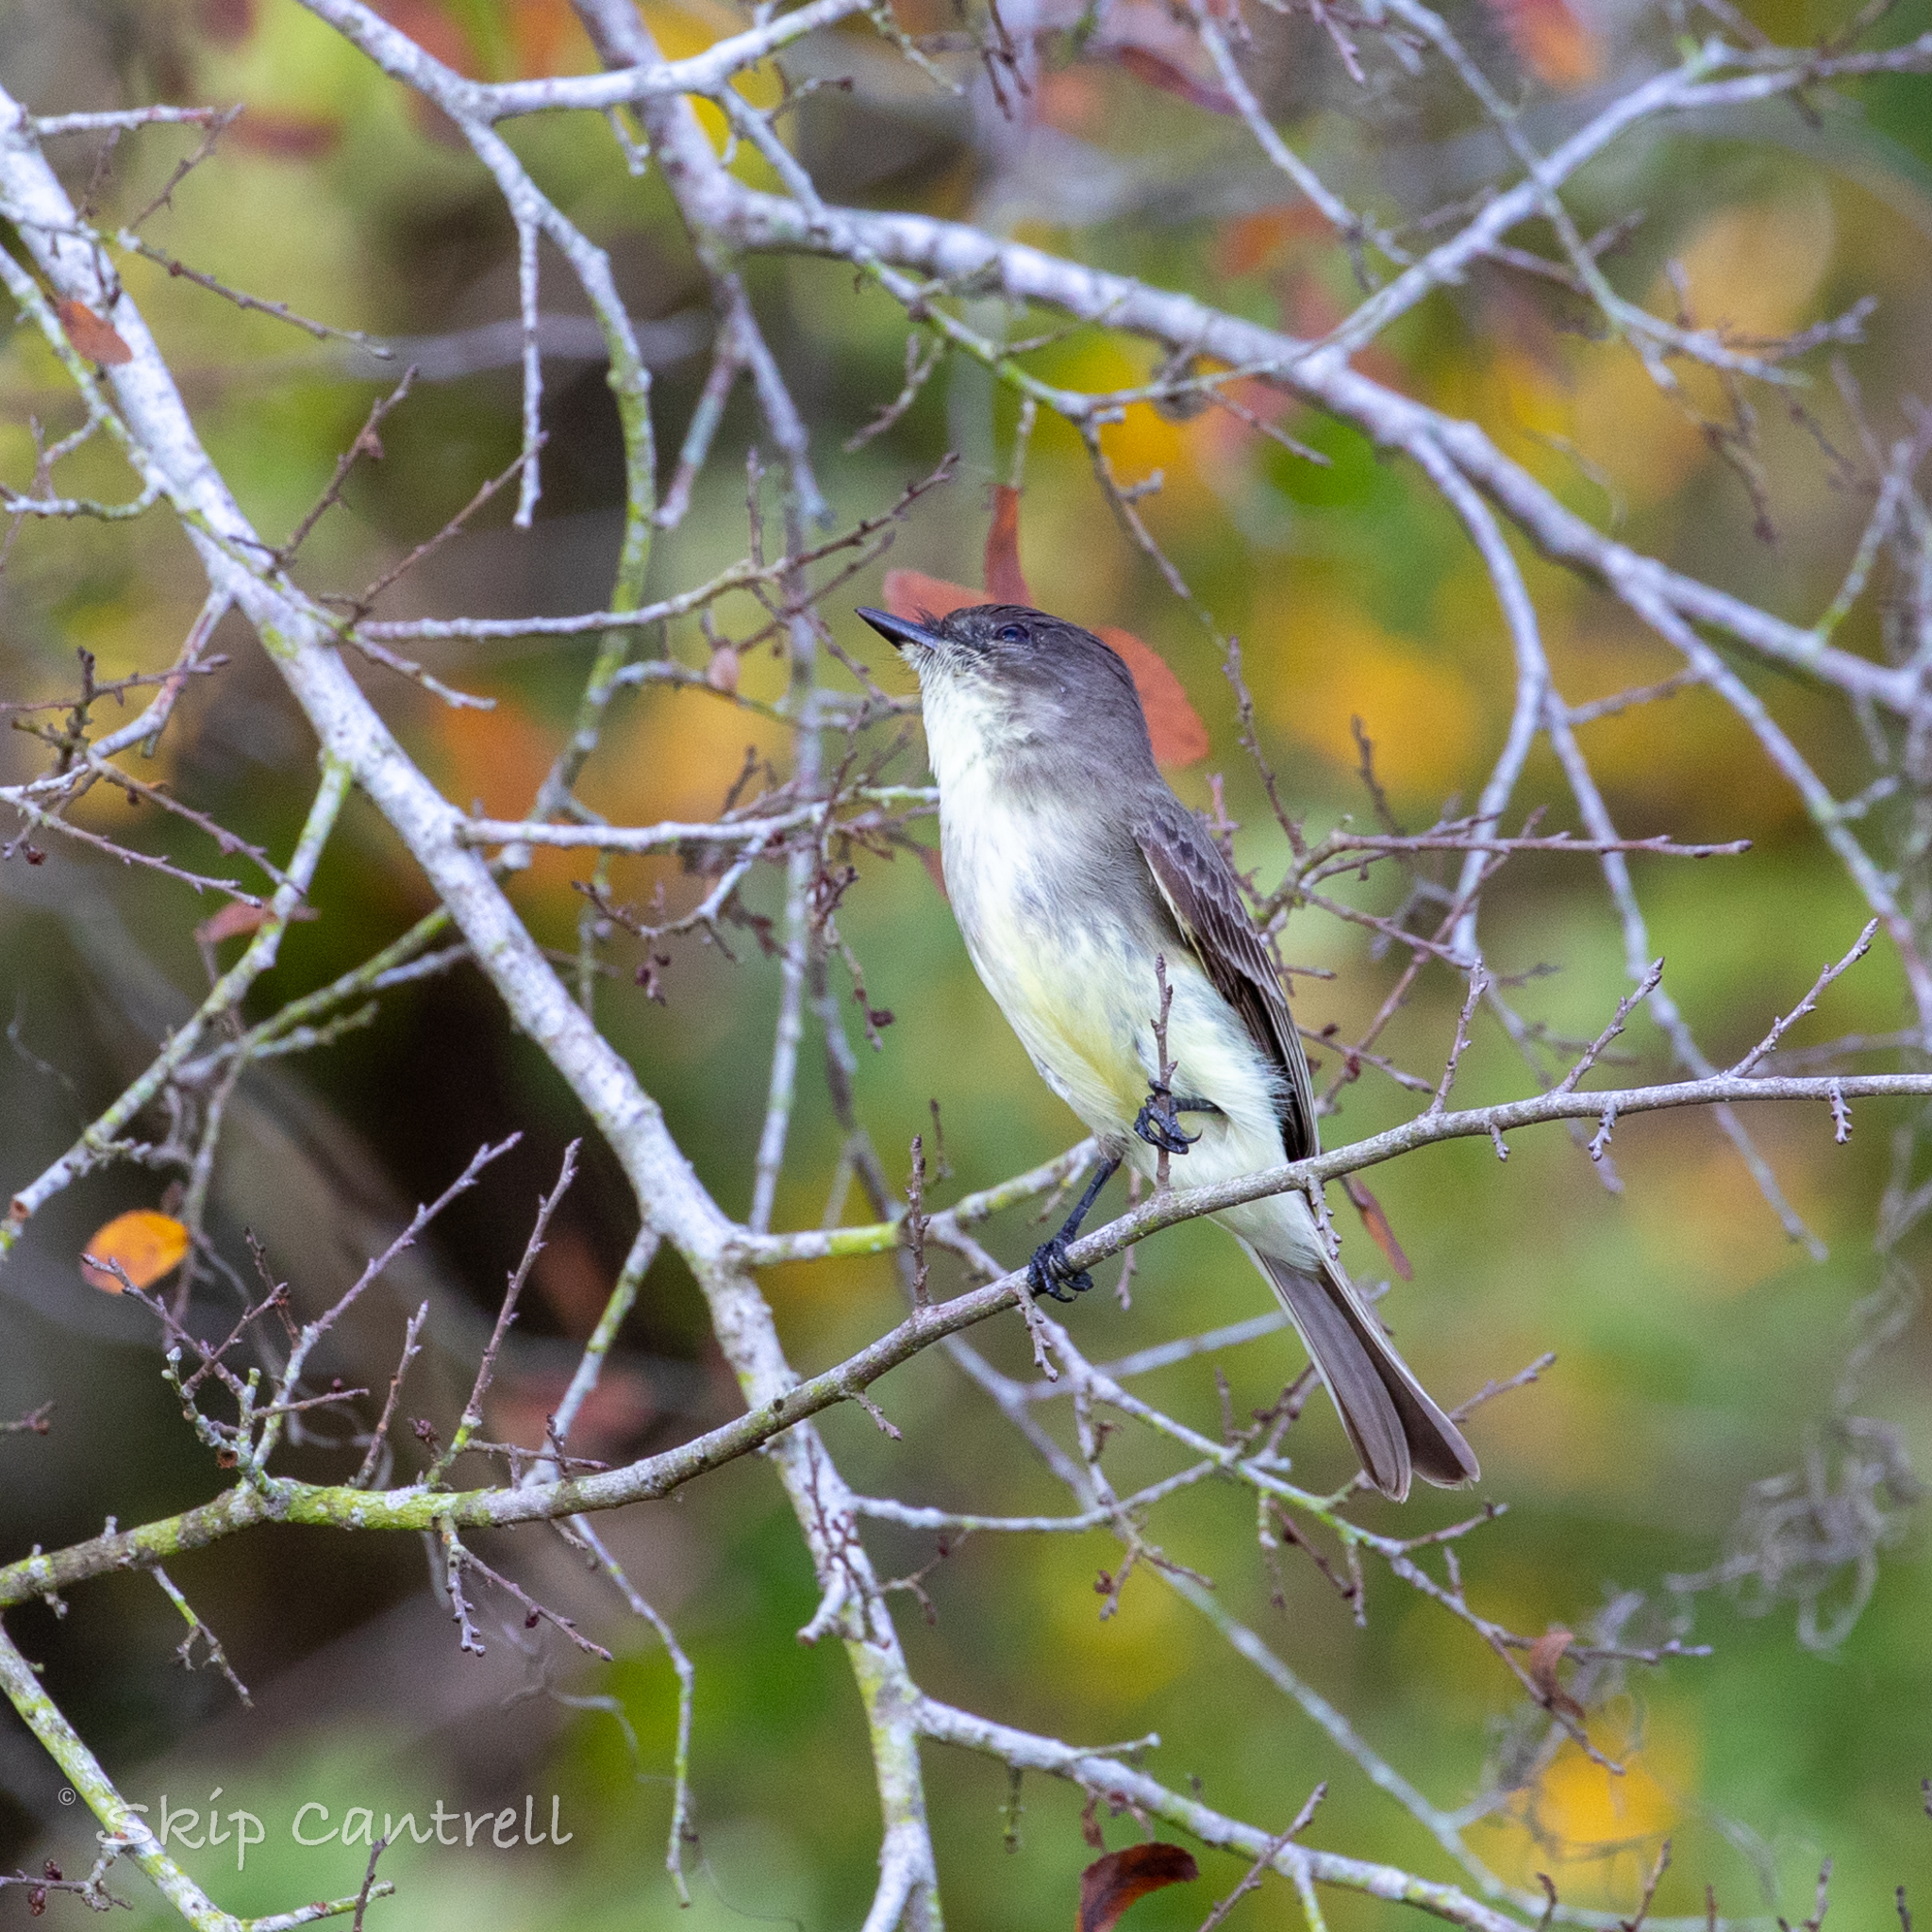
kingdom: Animalia
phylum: Chordata
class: Aves
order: Passeriformes
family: Tyrannidae
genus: Sayornis
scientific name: Sayornis phoebe
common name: Eastern phoebe
